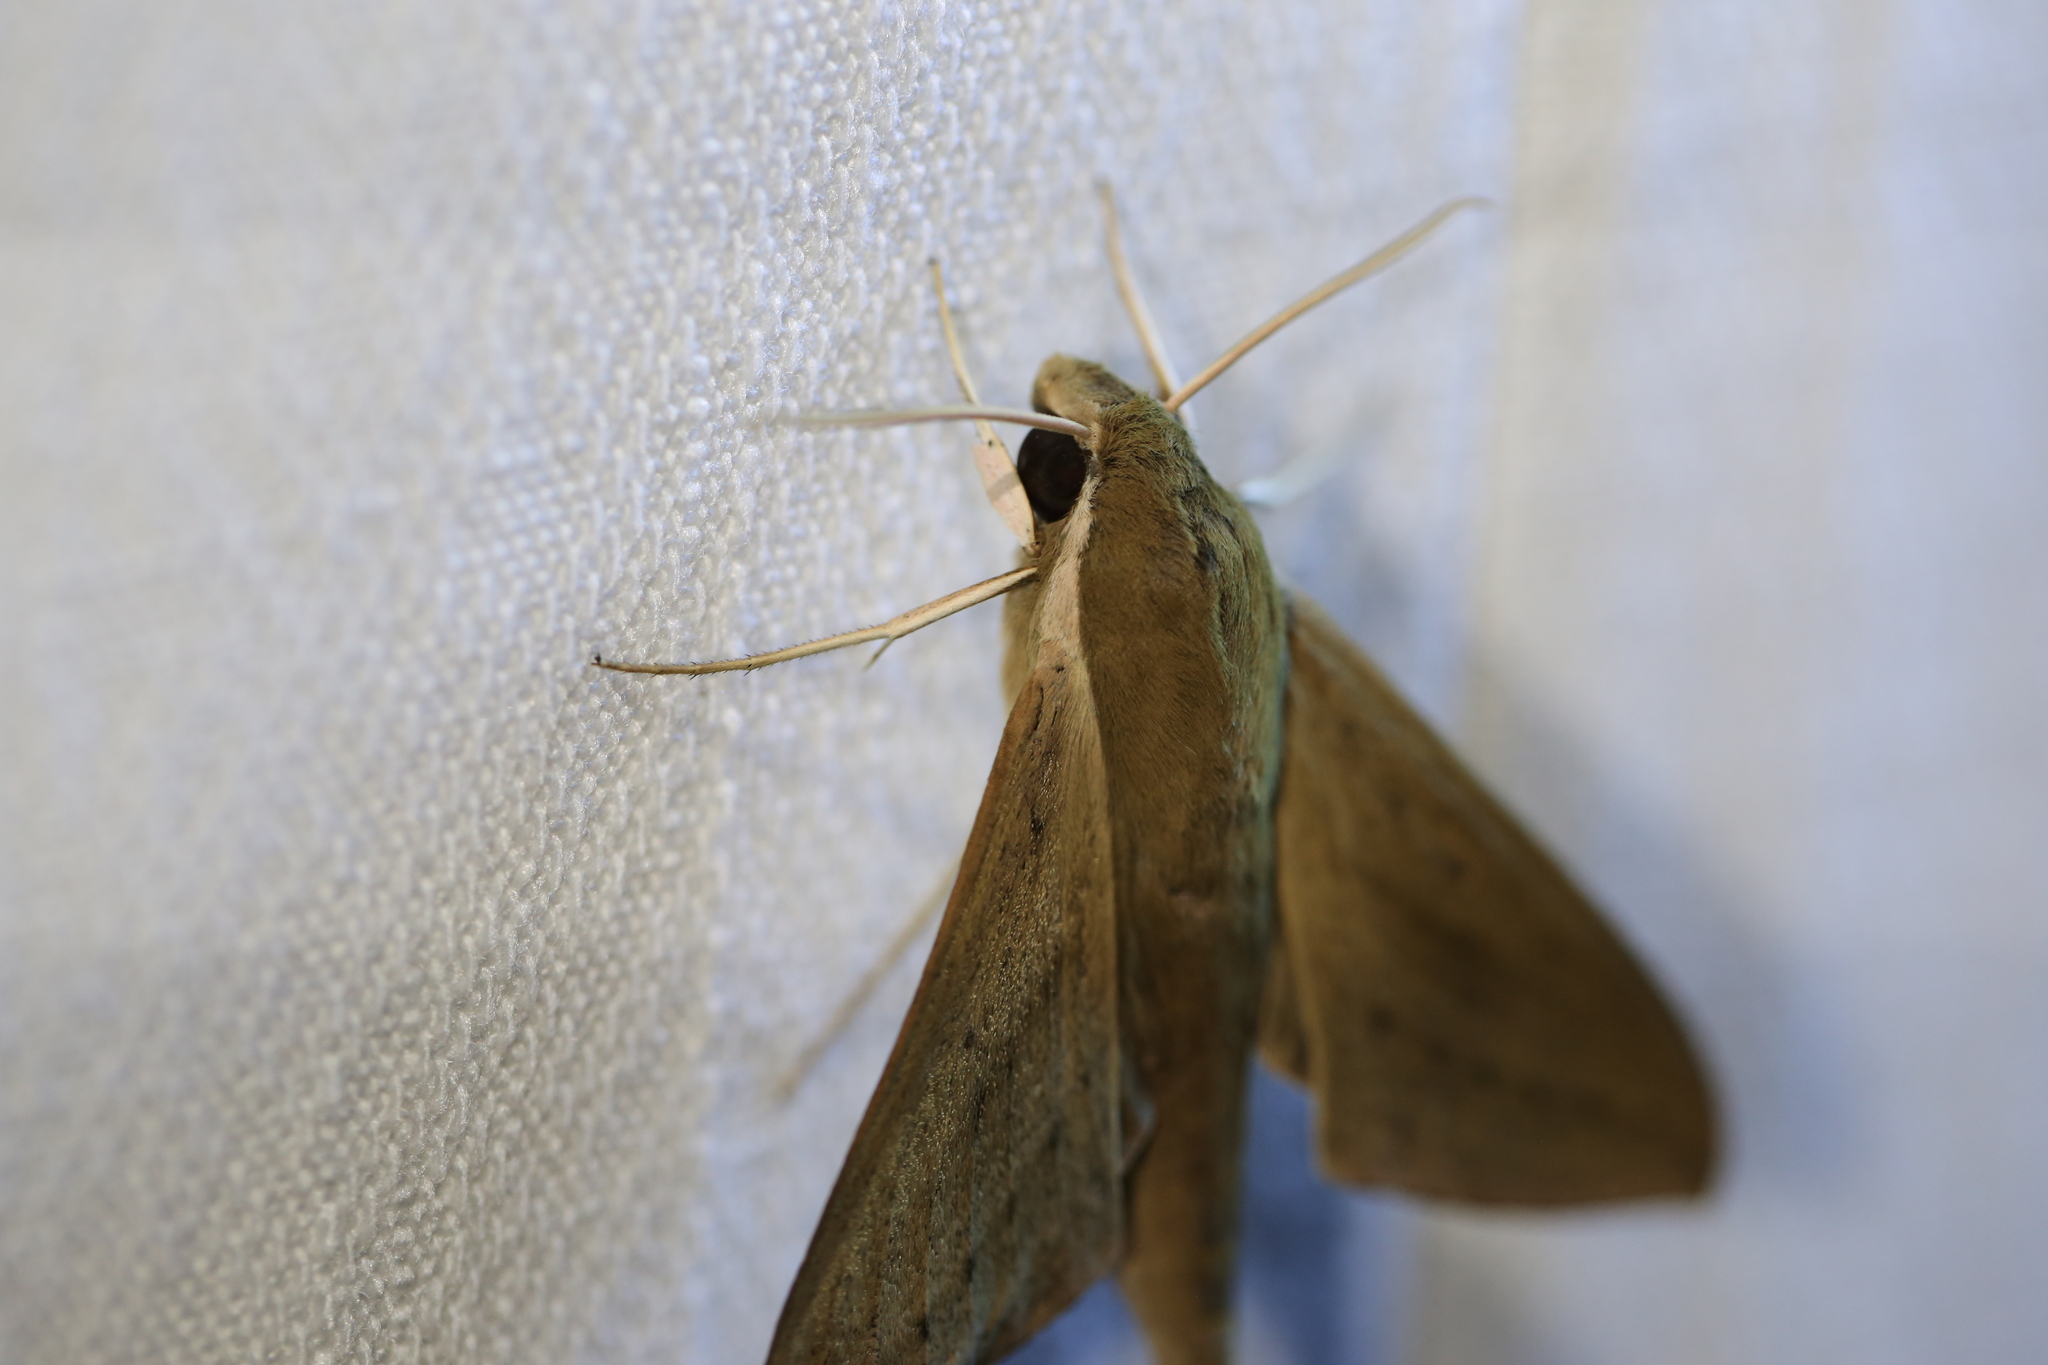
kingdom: Animalia
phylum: Arthropoda
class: Insecta
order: Lepidoptera
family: Sphingidae
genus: Theretra
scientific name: Theretra latreillii
